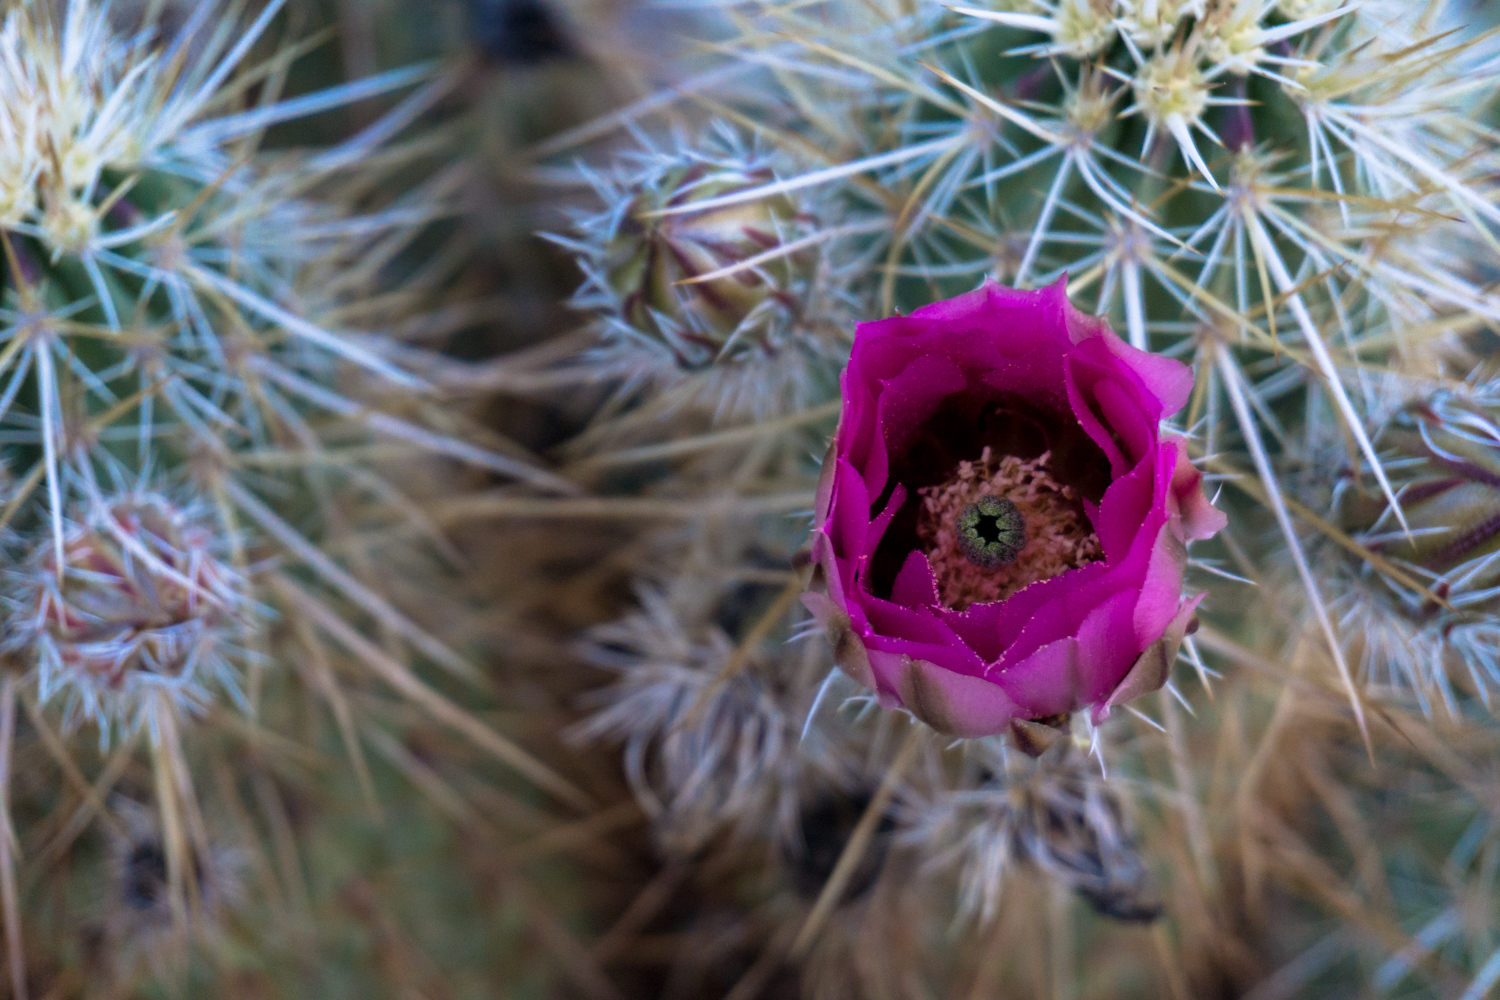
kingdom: Plantae
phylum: Tracheophyta
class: Magnoliopsida
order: Caryophyllales
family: Cactaceae
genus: Echinocereus
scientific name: Echinocereus engelmannii
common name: Engelmann's hedgehog cactus
